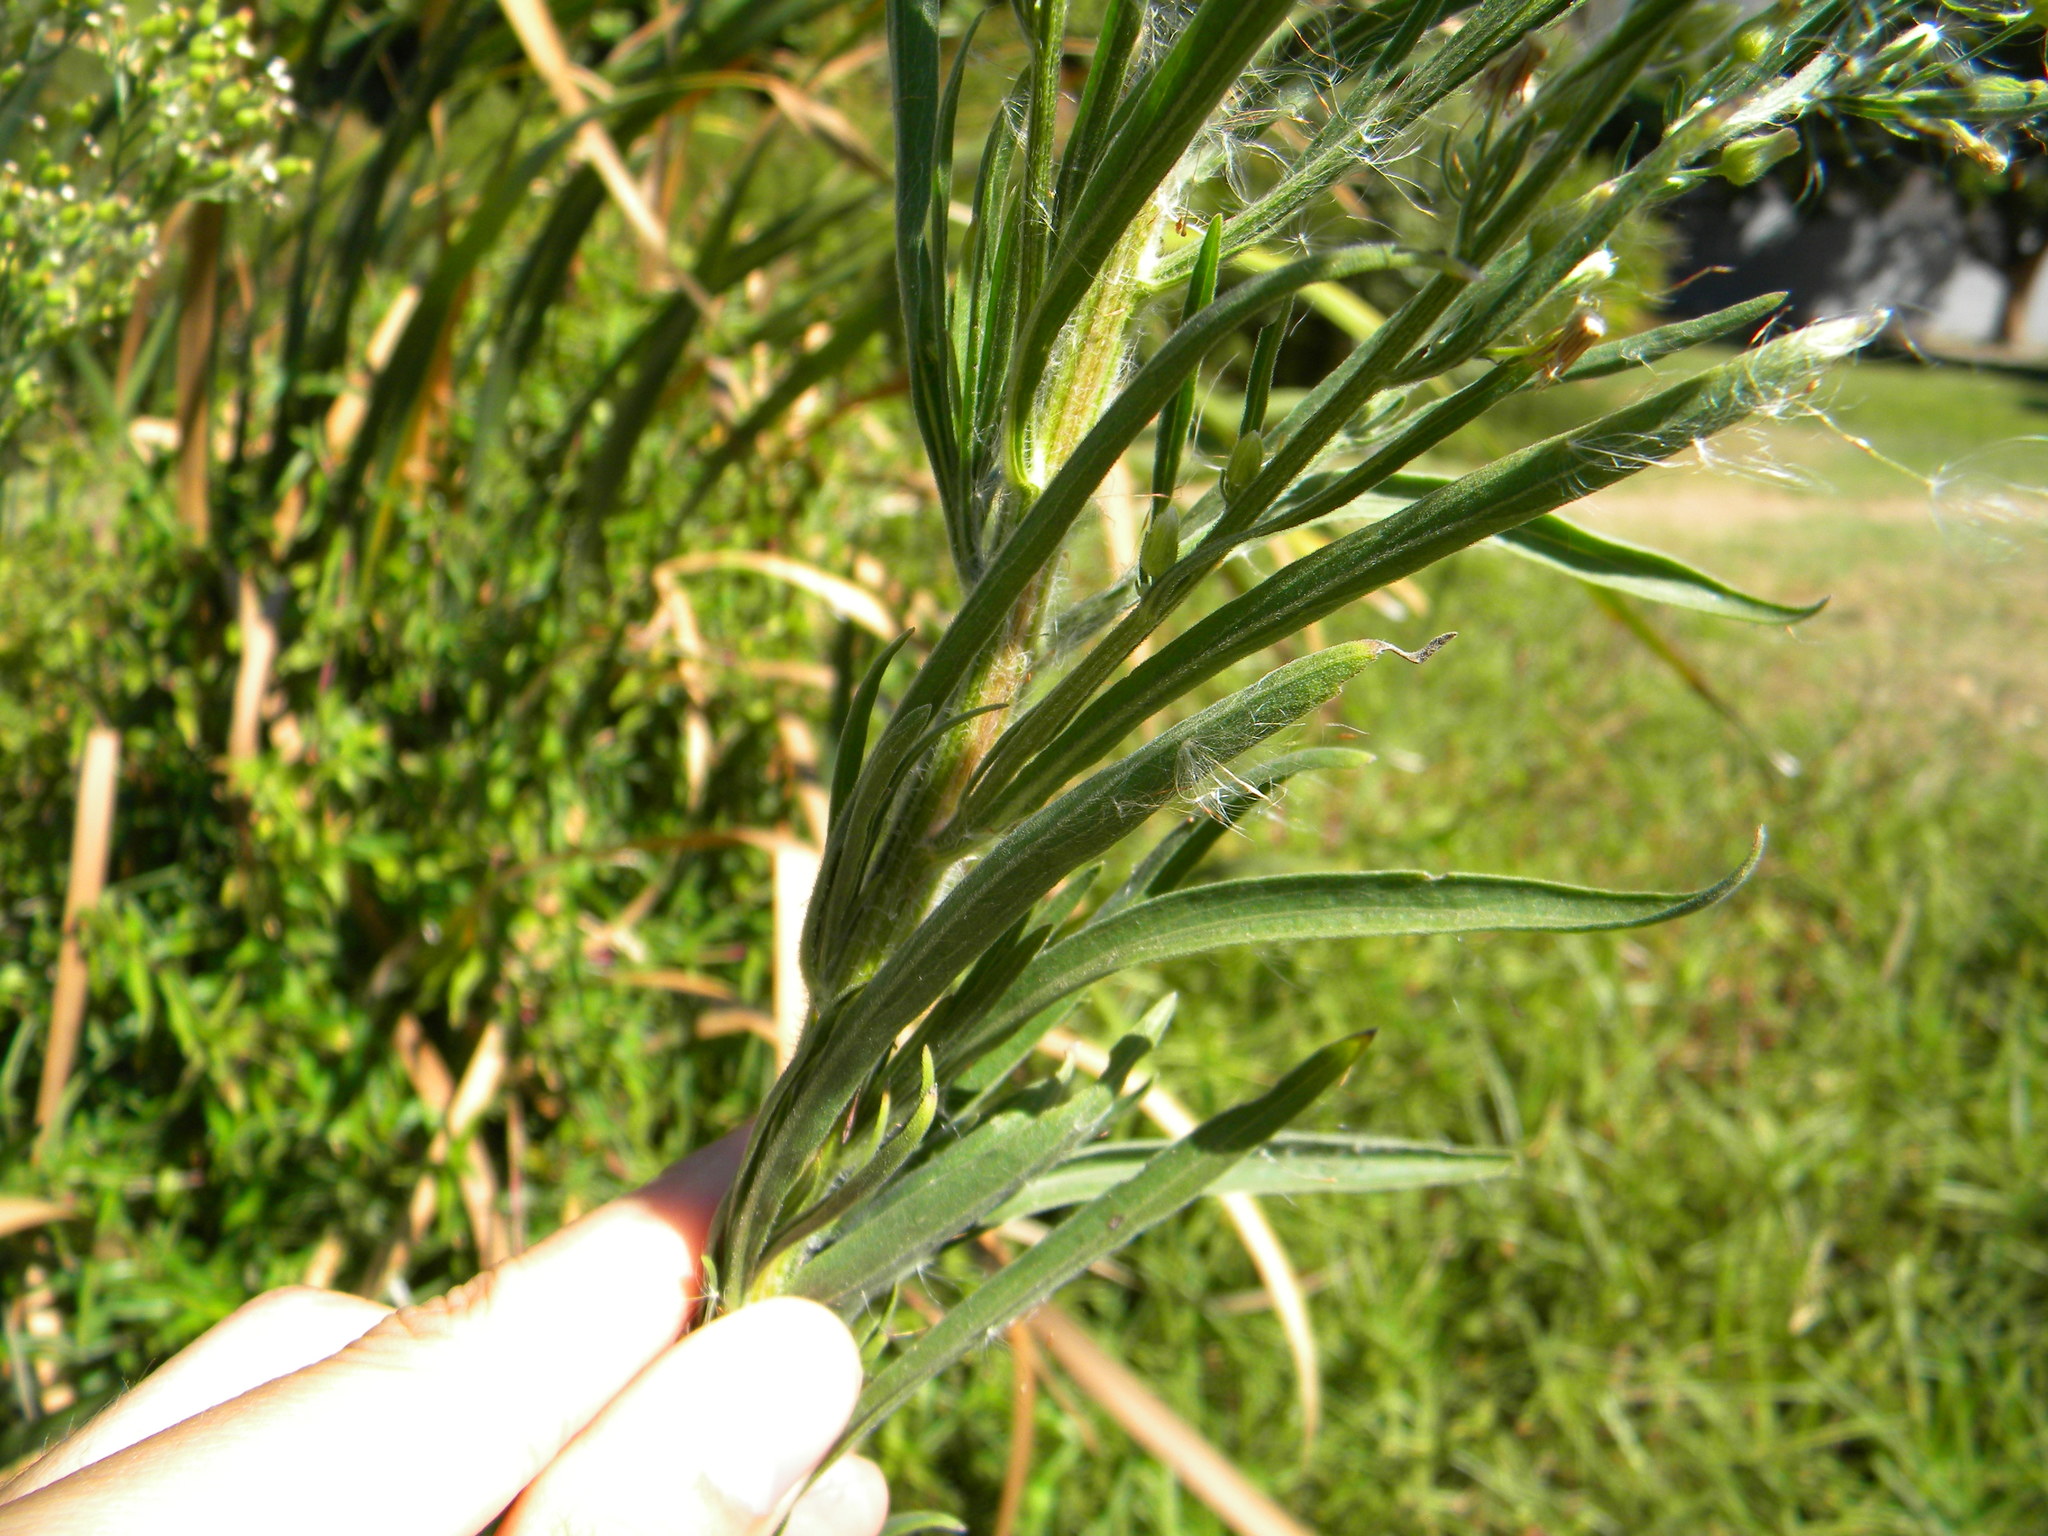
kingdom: Plantae
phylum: Tracheophyta
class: Magnoliopsida
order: Asterales
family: Asteraceae
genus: Erigeron
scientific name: Erigeron sumatrensis
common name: Daisy
